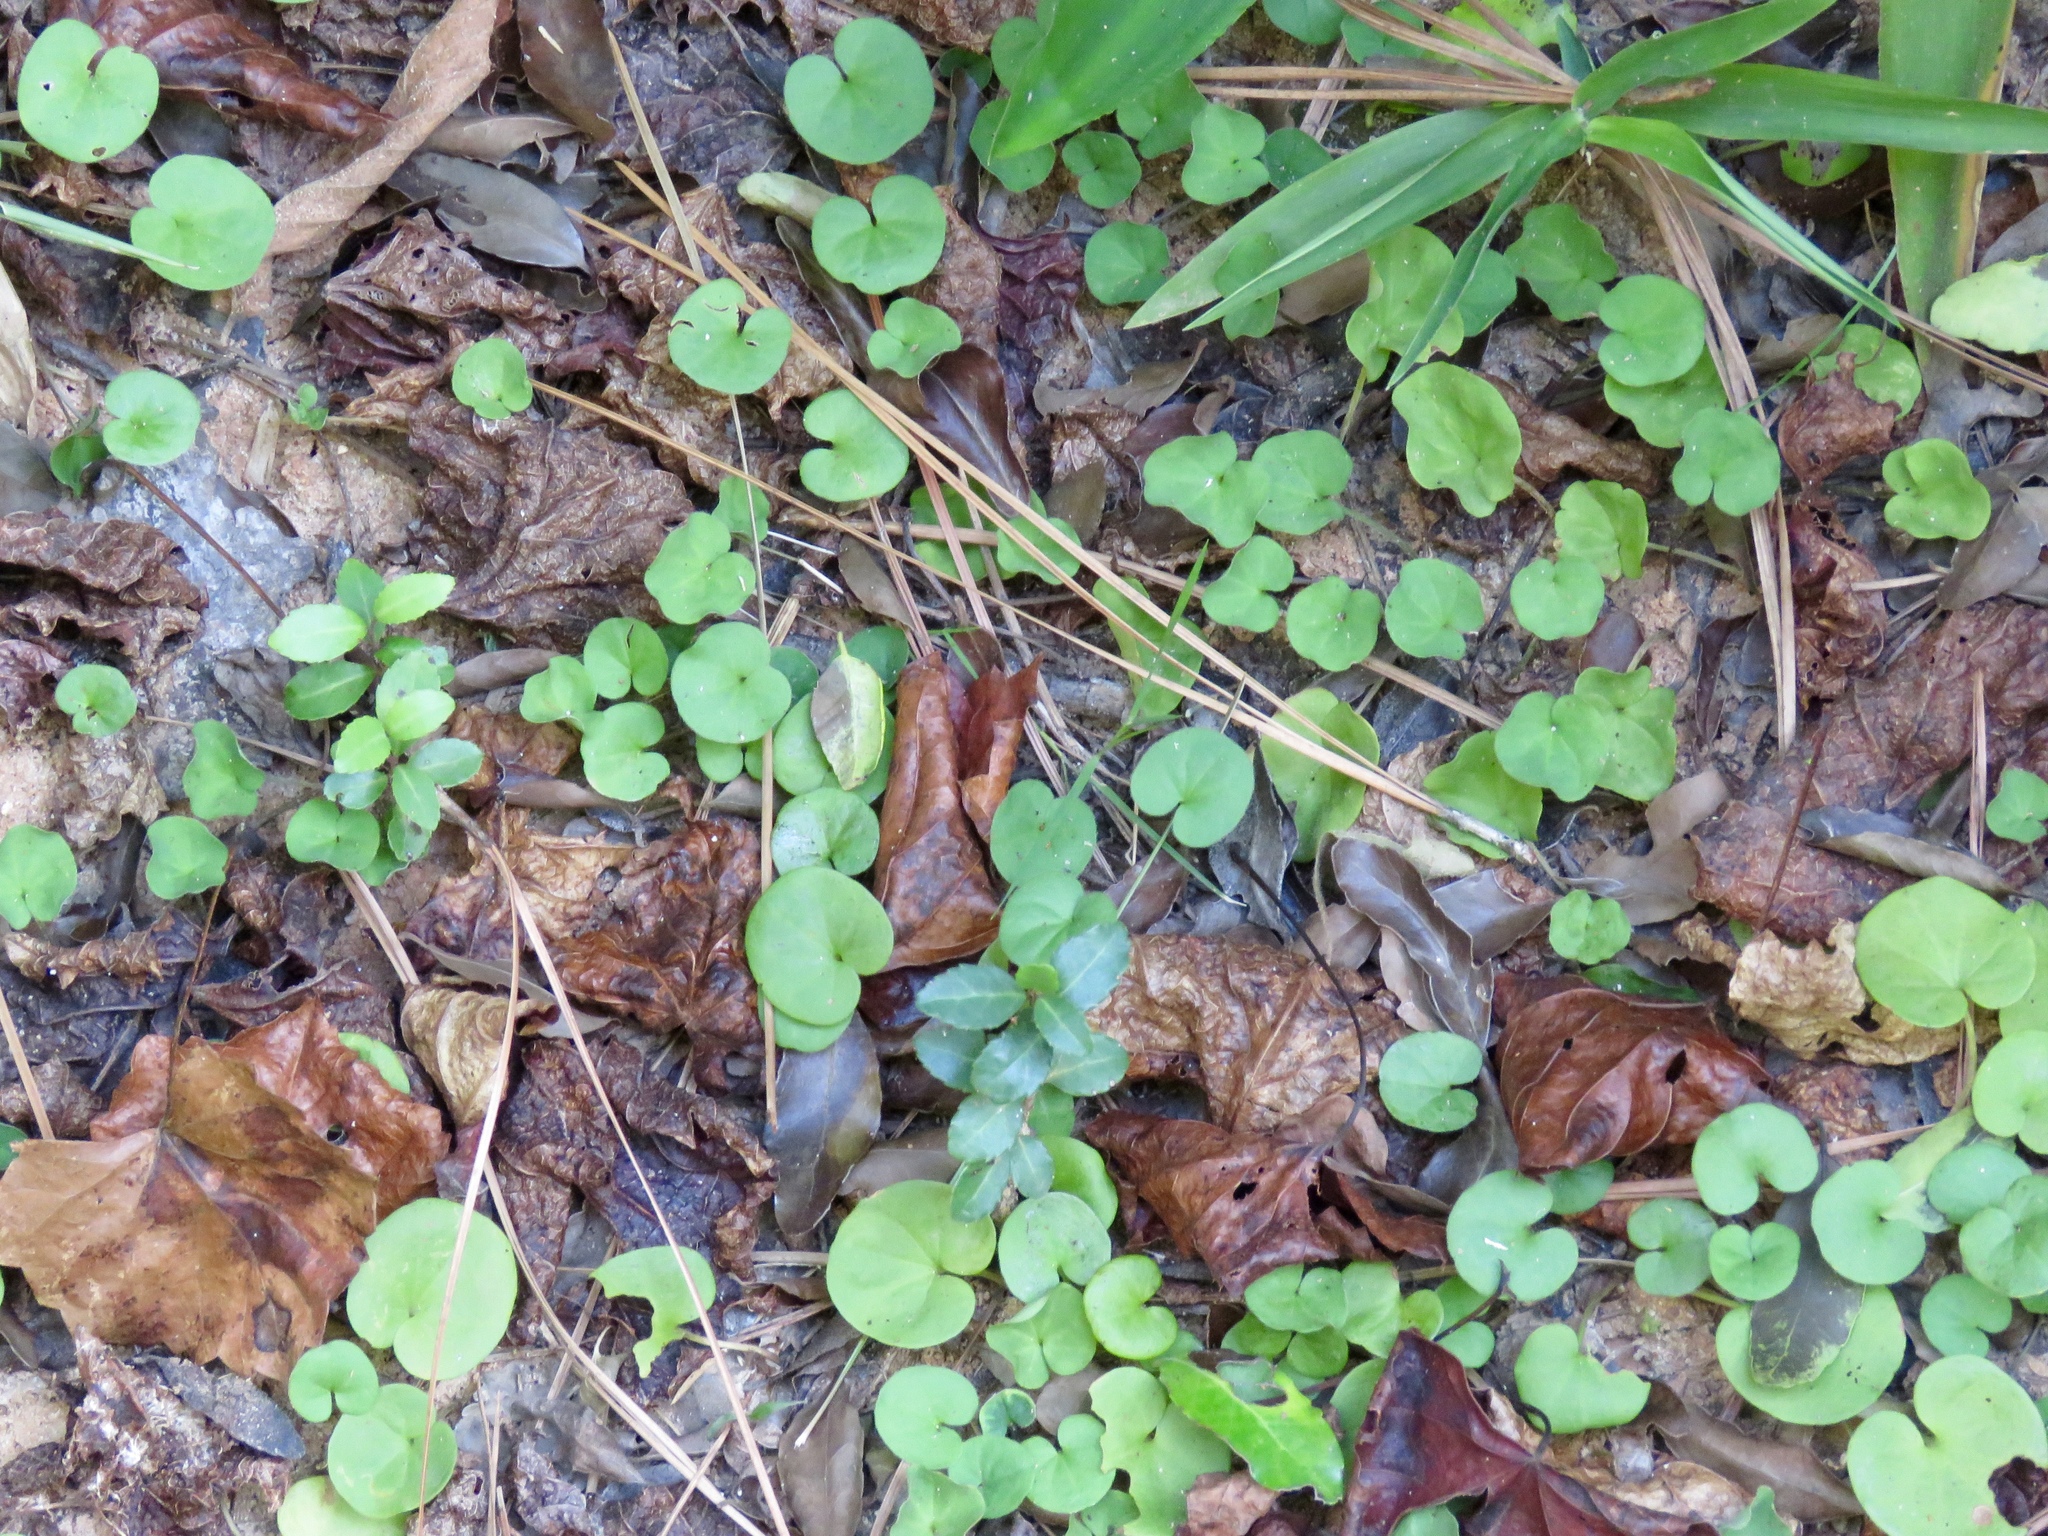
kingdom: Plantae
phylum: Tracheophyta
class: Magnoliopsida
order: Solanales
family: Convolvulaceae
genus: Dichondra
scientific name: Dichondra carolinensis
